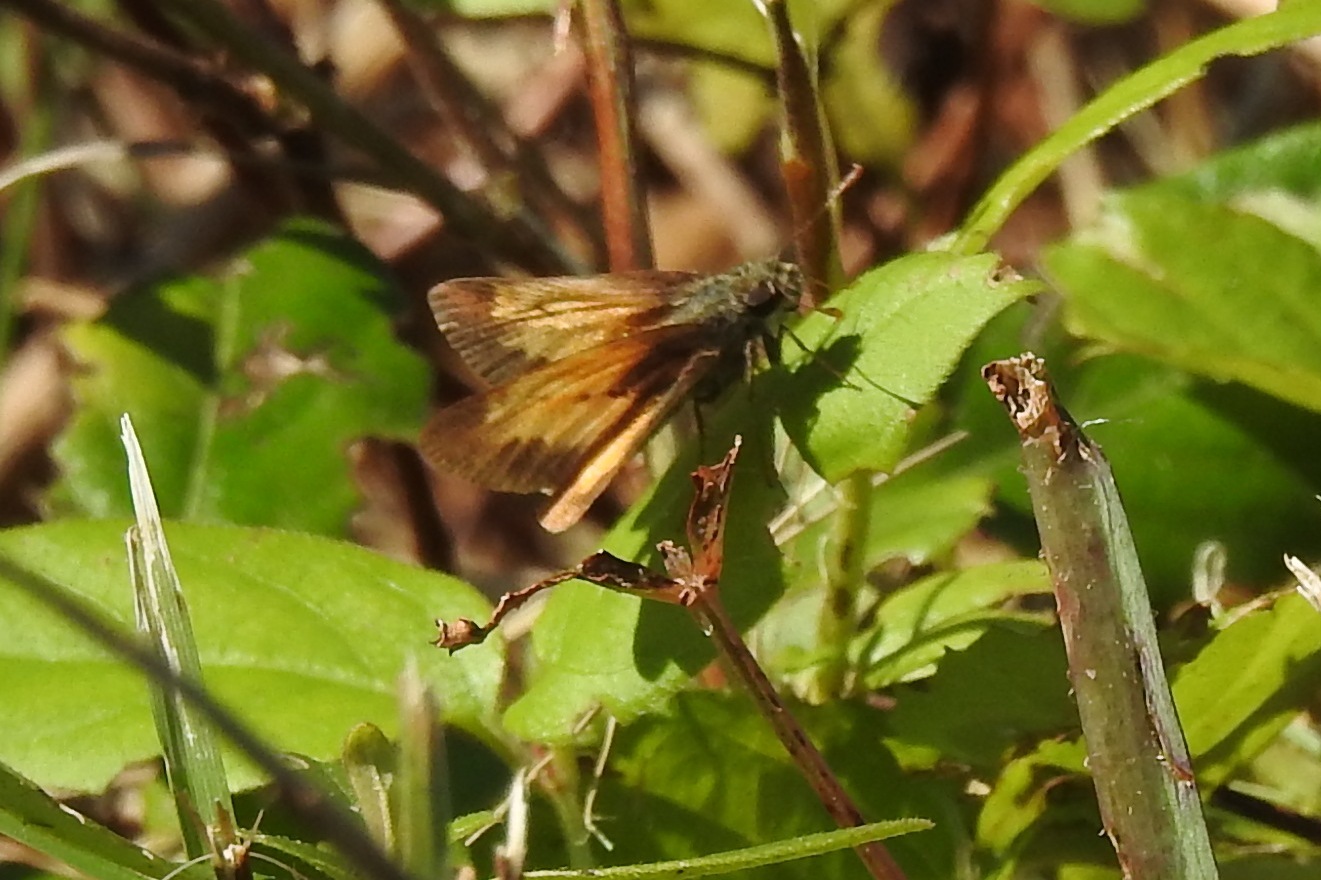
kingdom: Animalia
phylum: Arthropoda
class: Insecta
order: Lepidoptera
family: Hesperiidae
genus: Lon
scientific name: Lon zabulon
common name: Zabulon skipper
